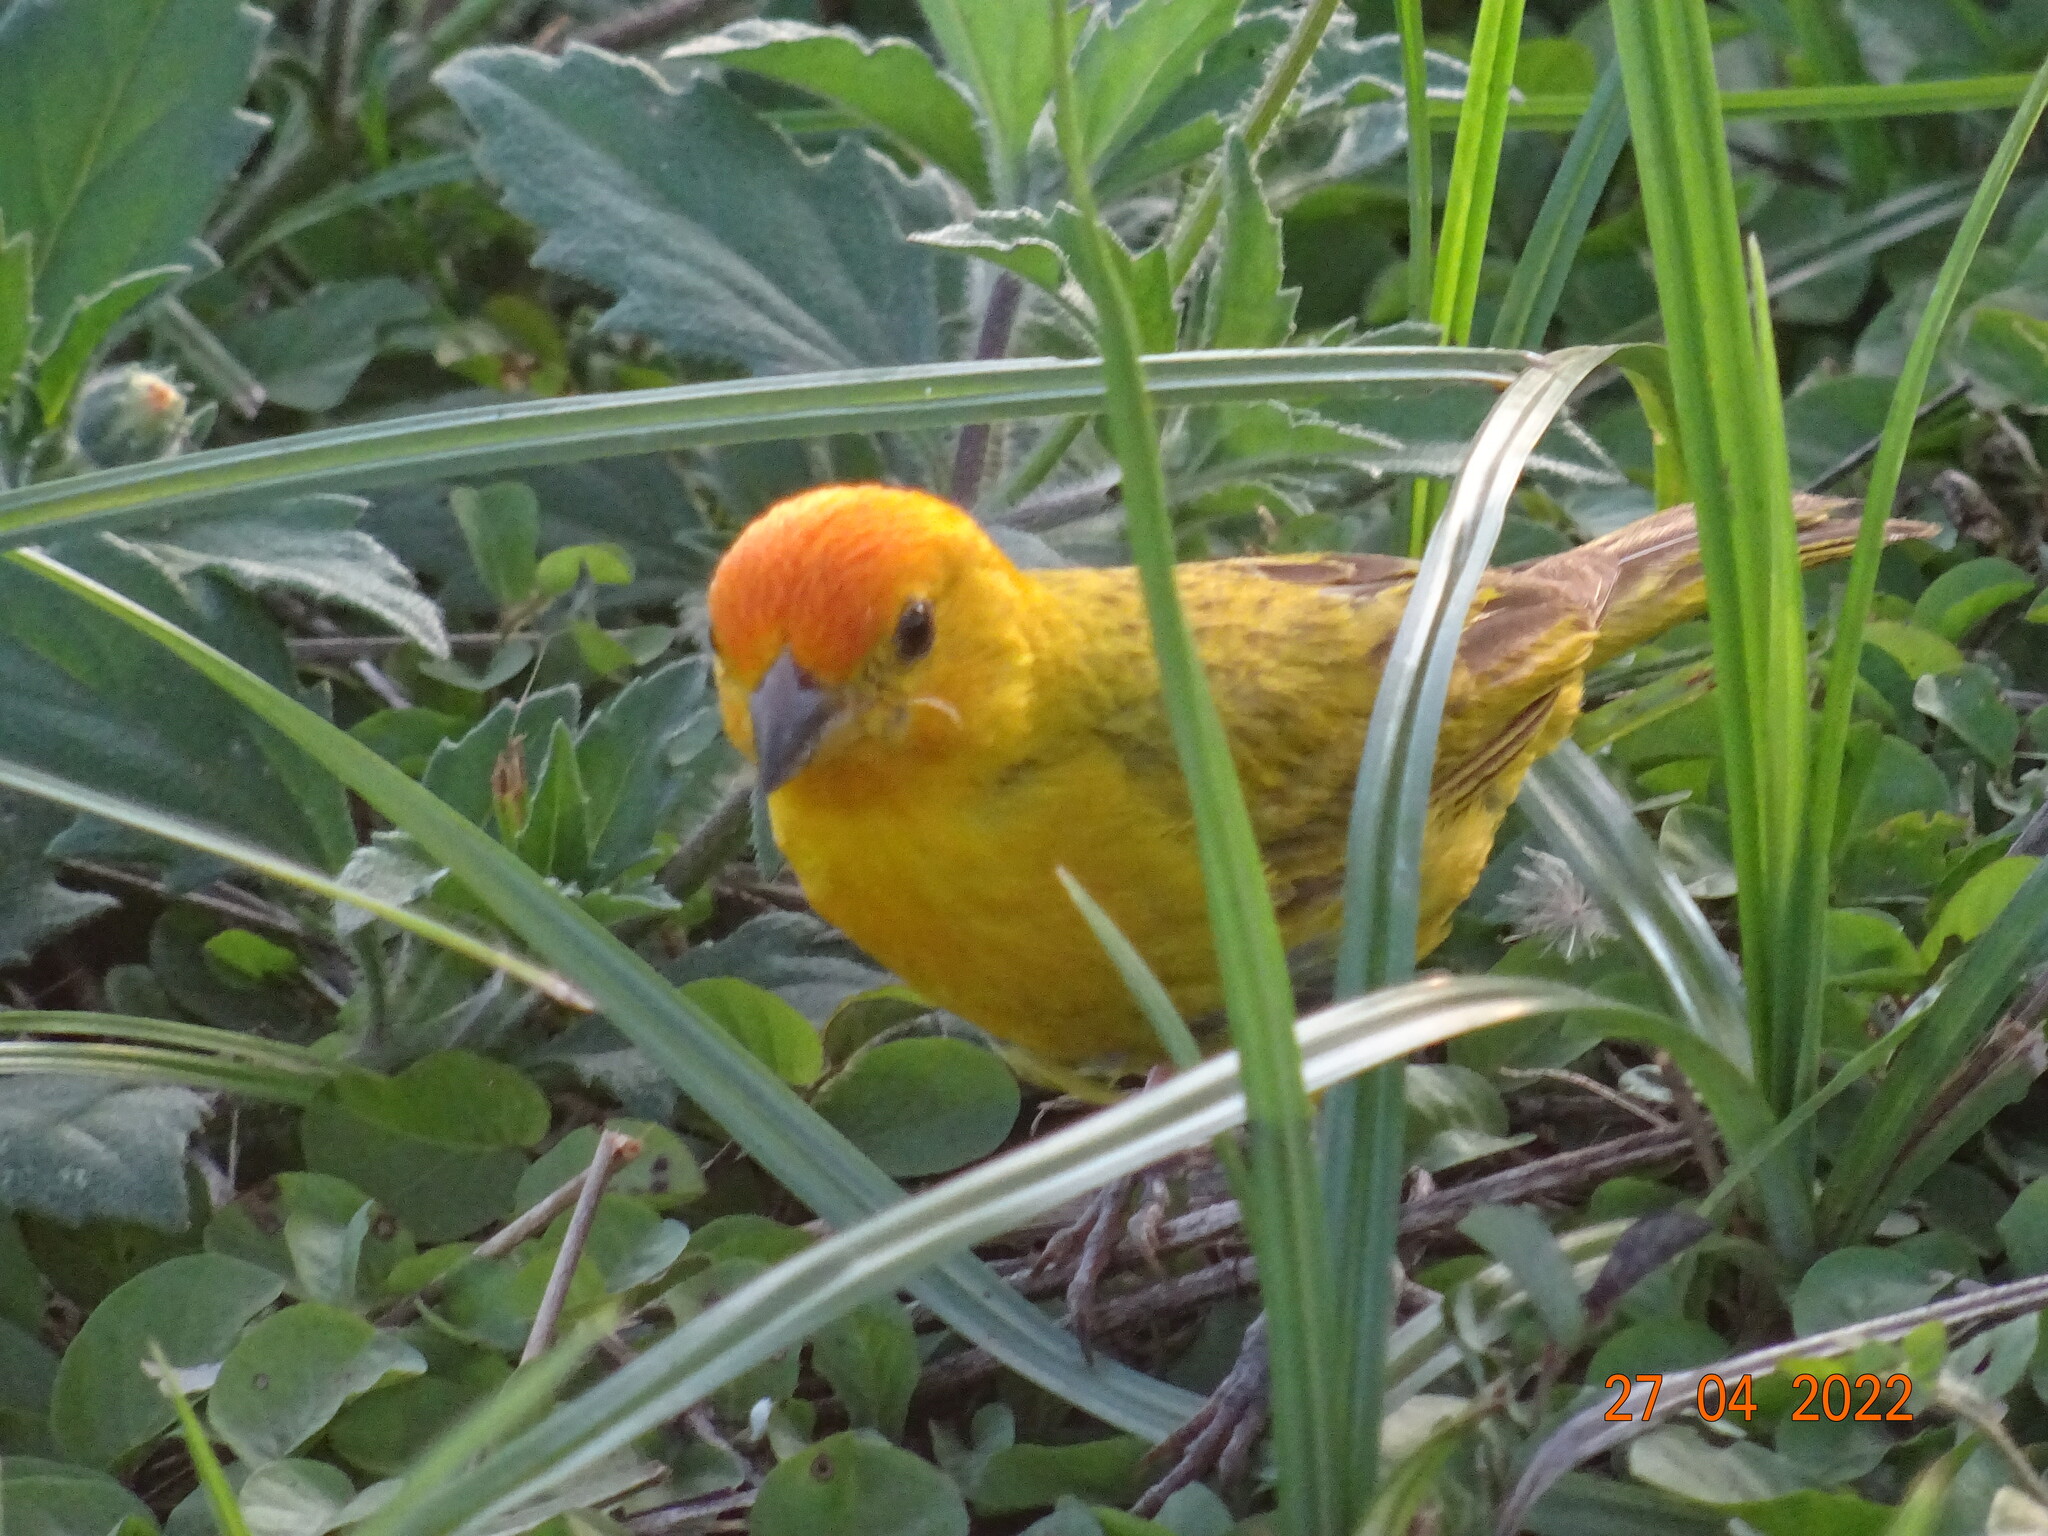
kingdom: Animalia
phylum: Chordata
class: Aves
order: Passeriformes
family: Thraupidae
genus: Sicalis
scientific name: Sicalis flaveola
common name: Saffron finch
